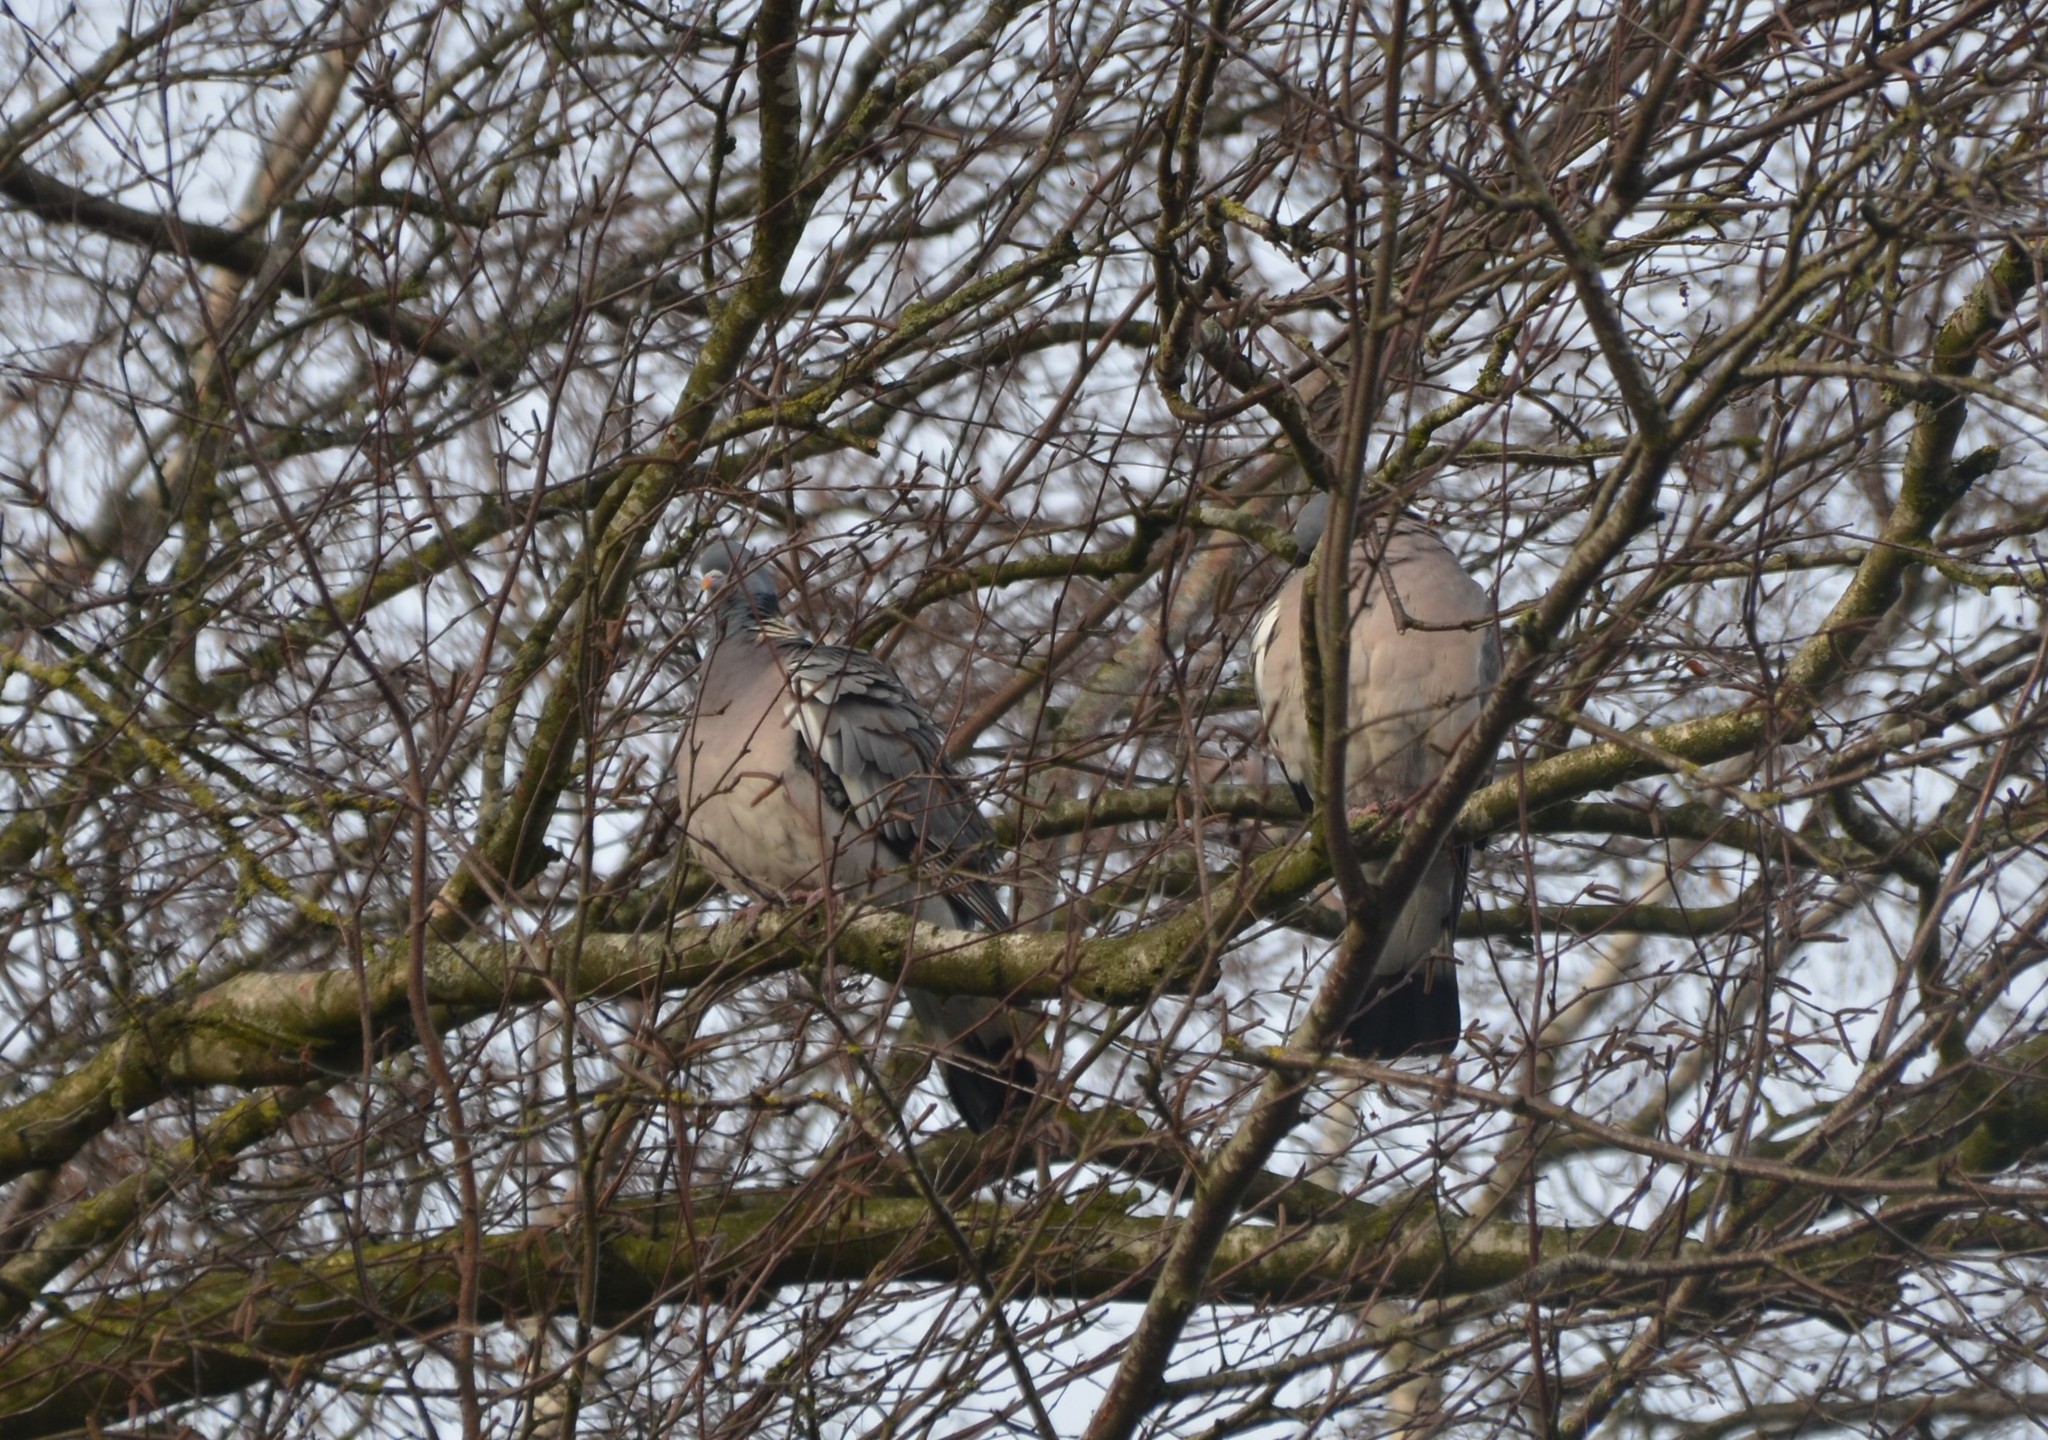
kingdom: Animalia
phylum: Chordata
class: Aves
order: Columbiformes
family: Columbidae
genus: Columba
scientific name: Columba palumbus
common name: Common wood pigeon
